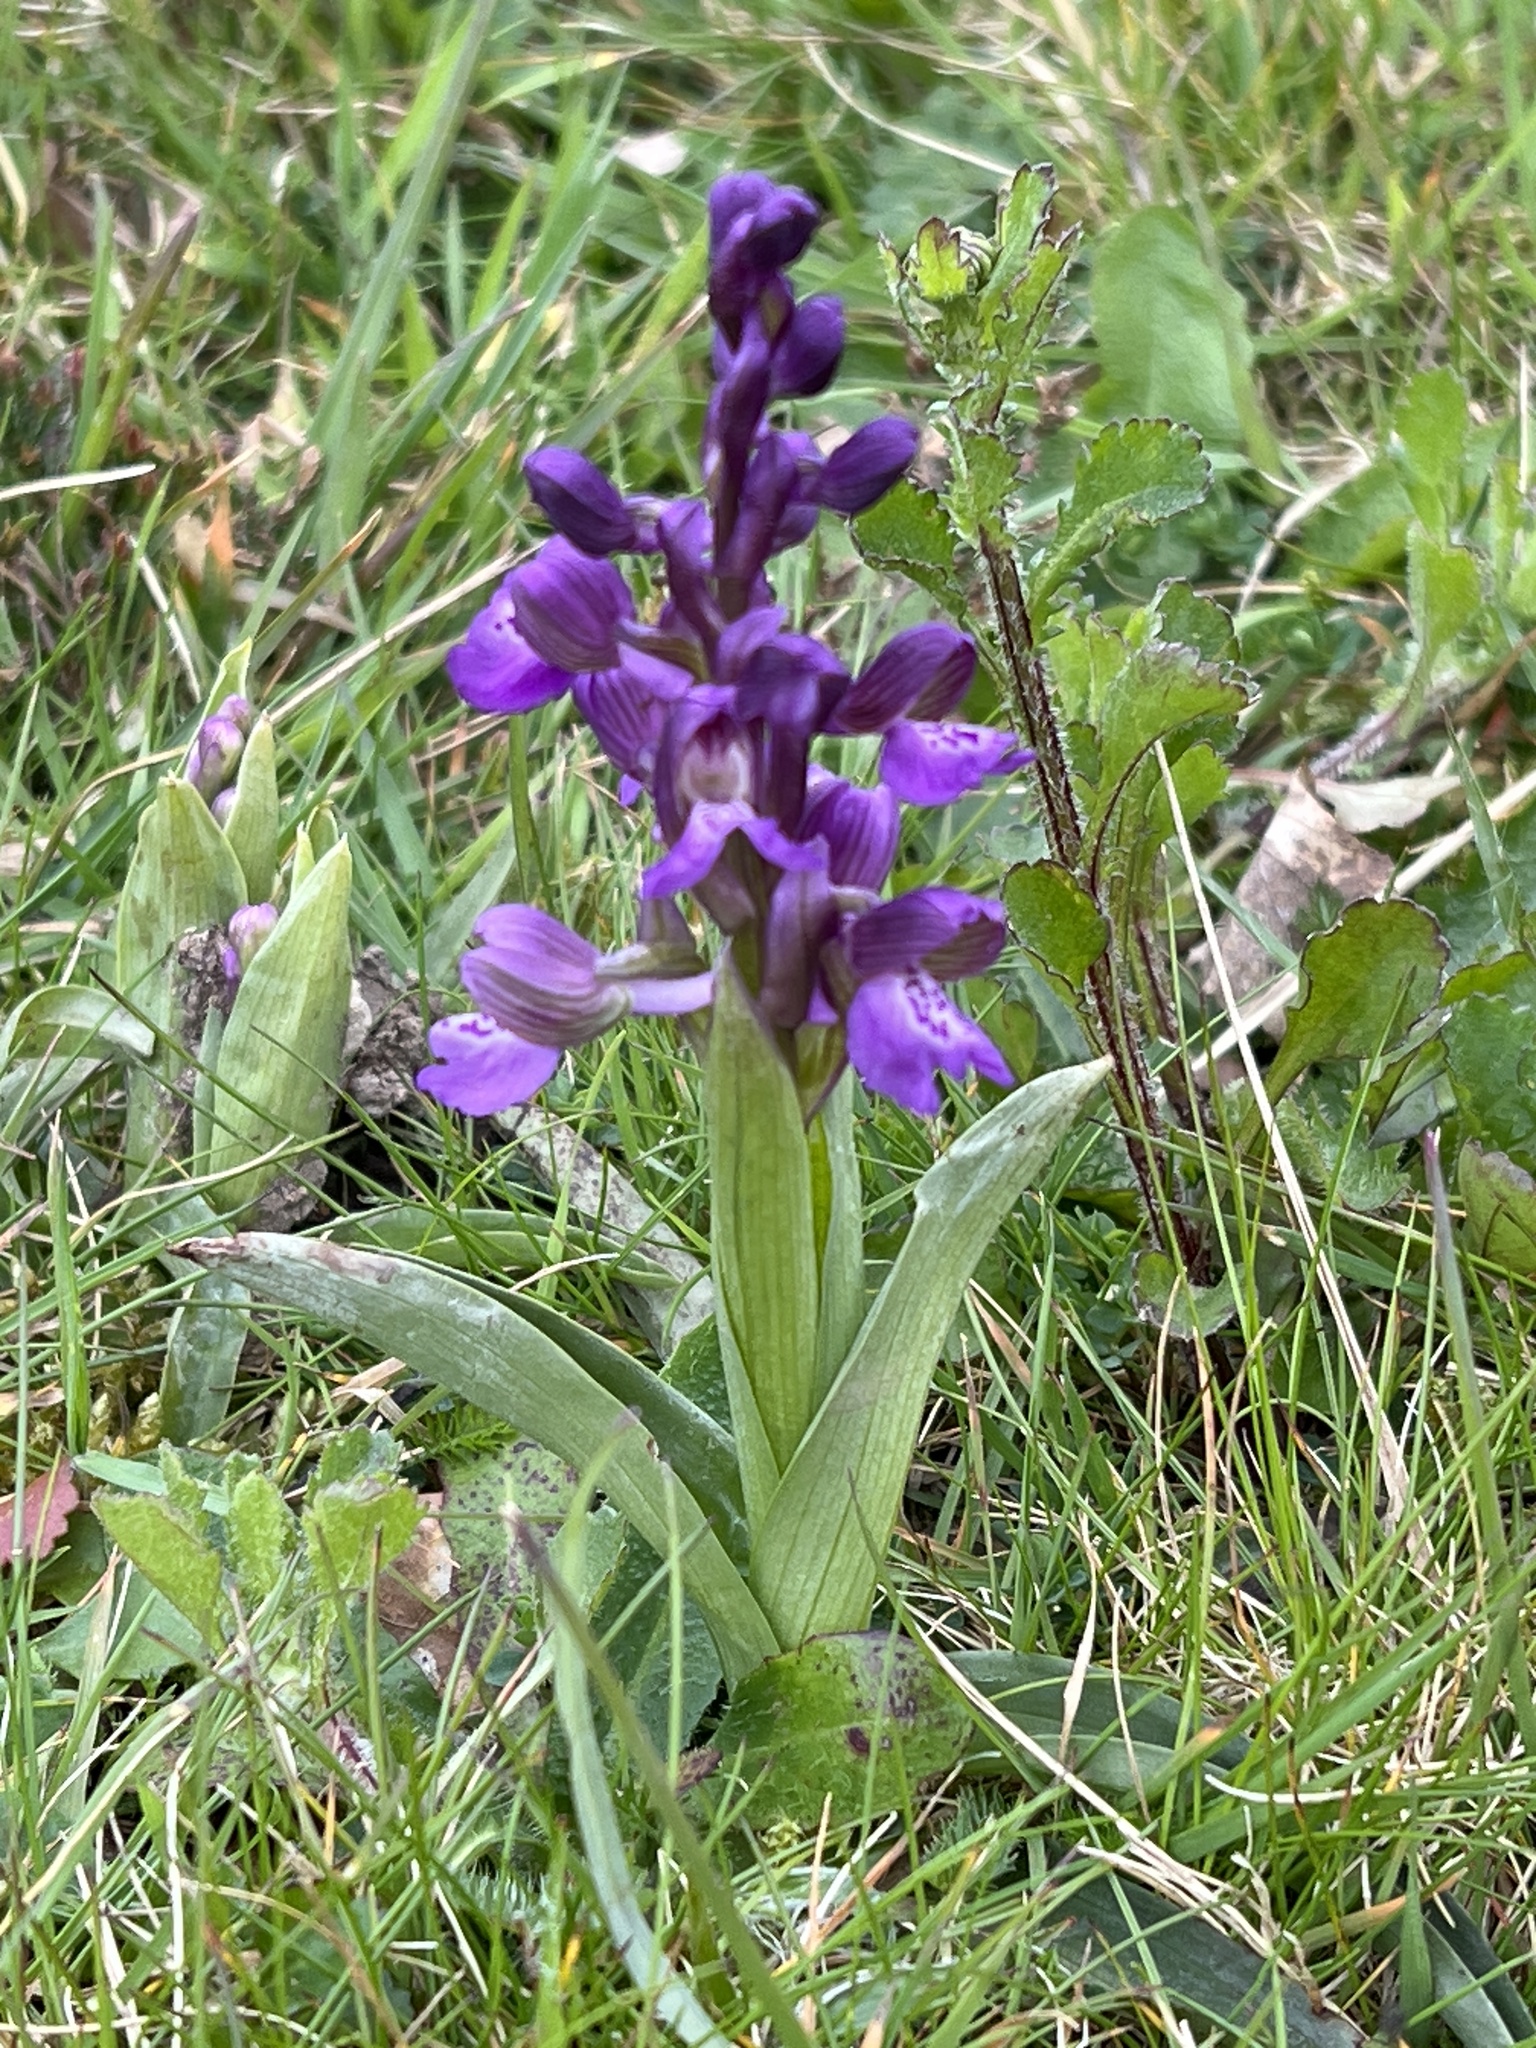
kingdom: Plantae
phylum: Tracheophyta
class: Liliopsida
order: Asparagales
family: Orchidaceae
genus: Anacamptis
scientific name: Anacamptis morio
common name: Green-winged orchid
